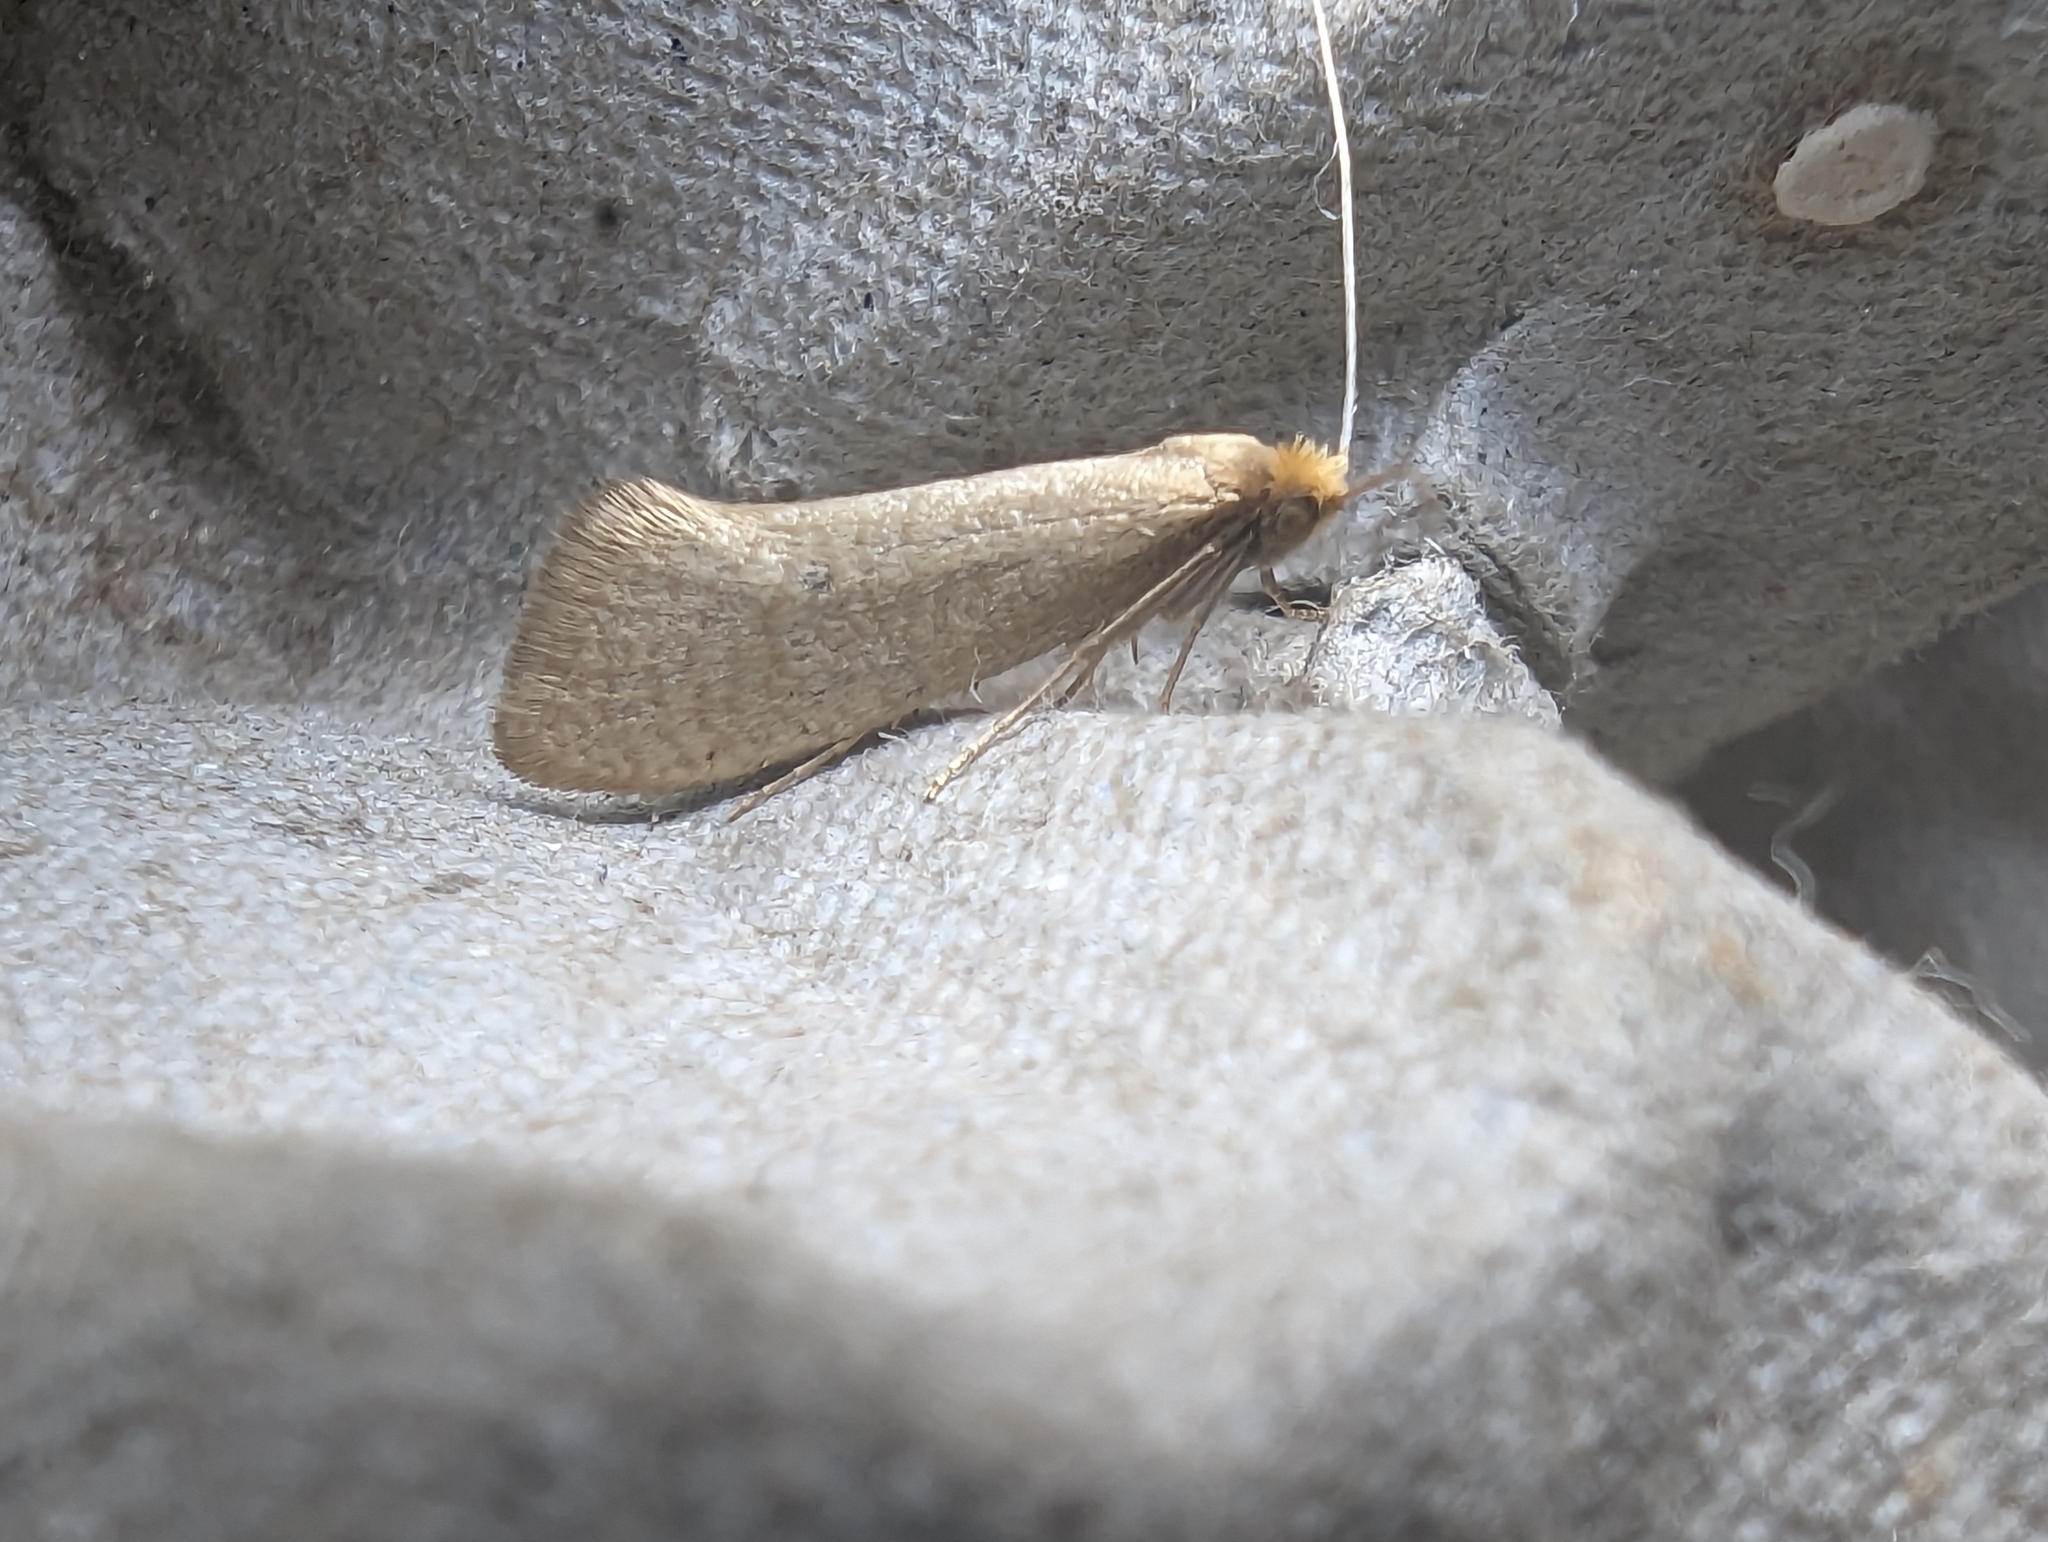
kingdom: Animalia
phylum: Arthropoda
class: Insecta
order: Lepidoptera
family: Adelidae
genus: Nematopogon
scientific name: Nematopogon swammerdamella
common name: Large long-horn
